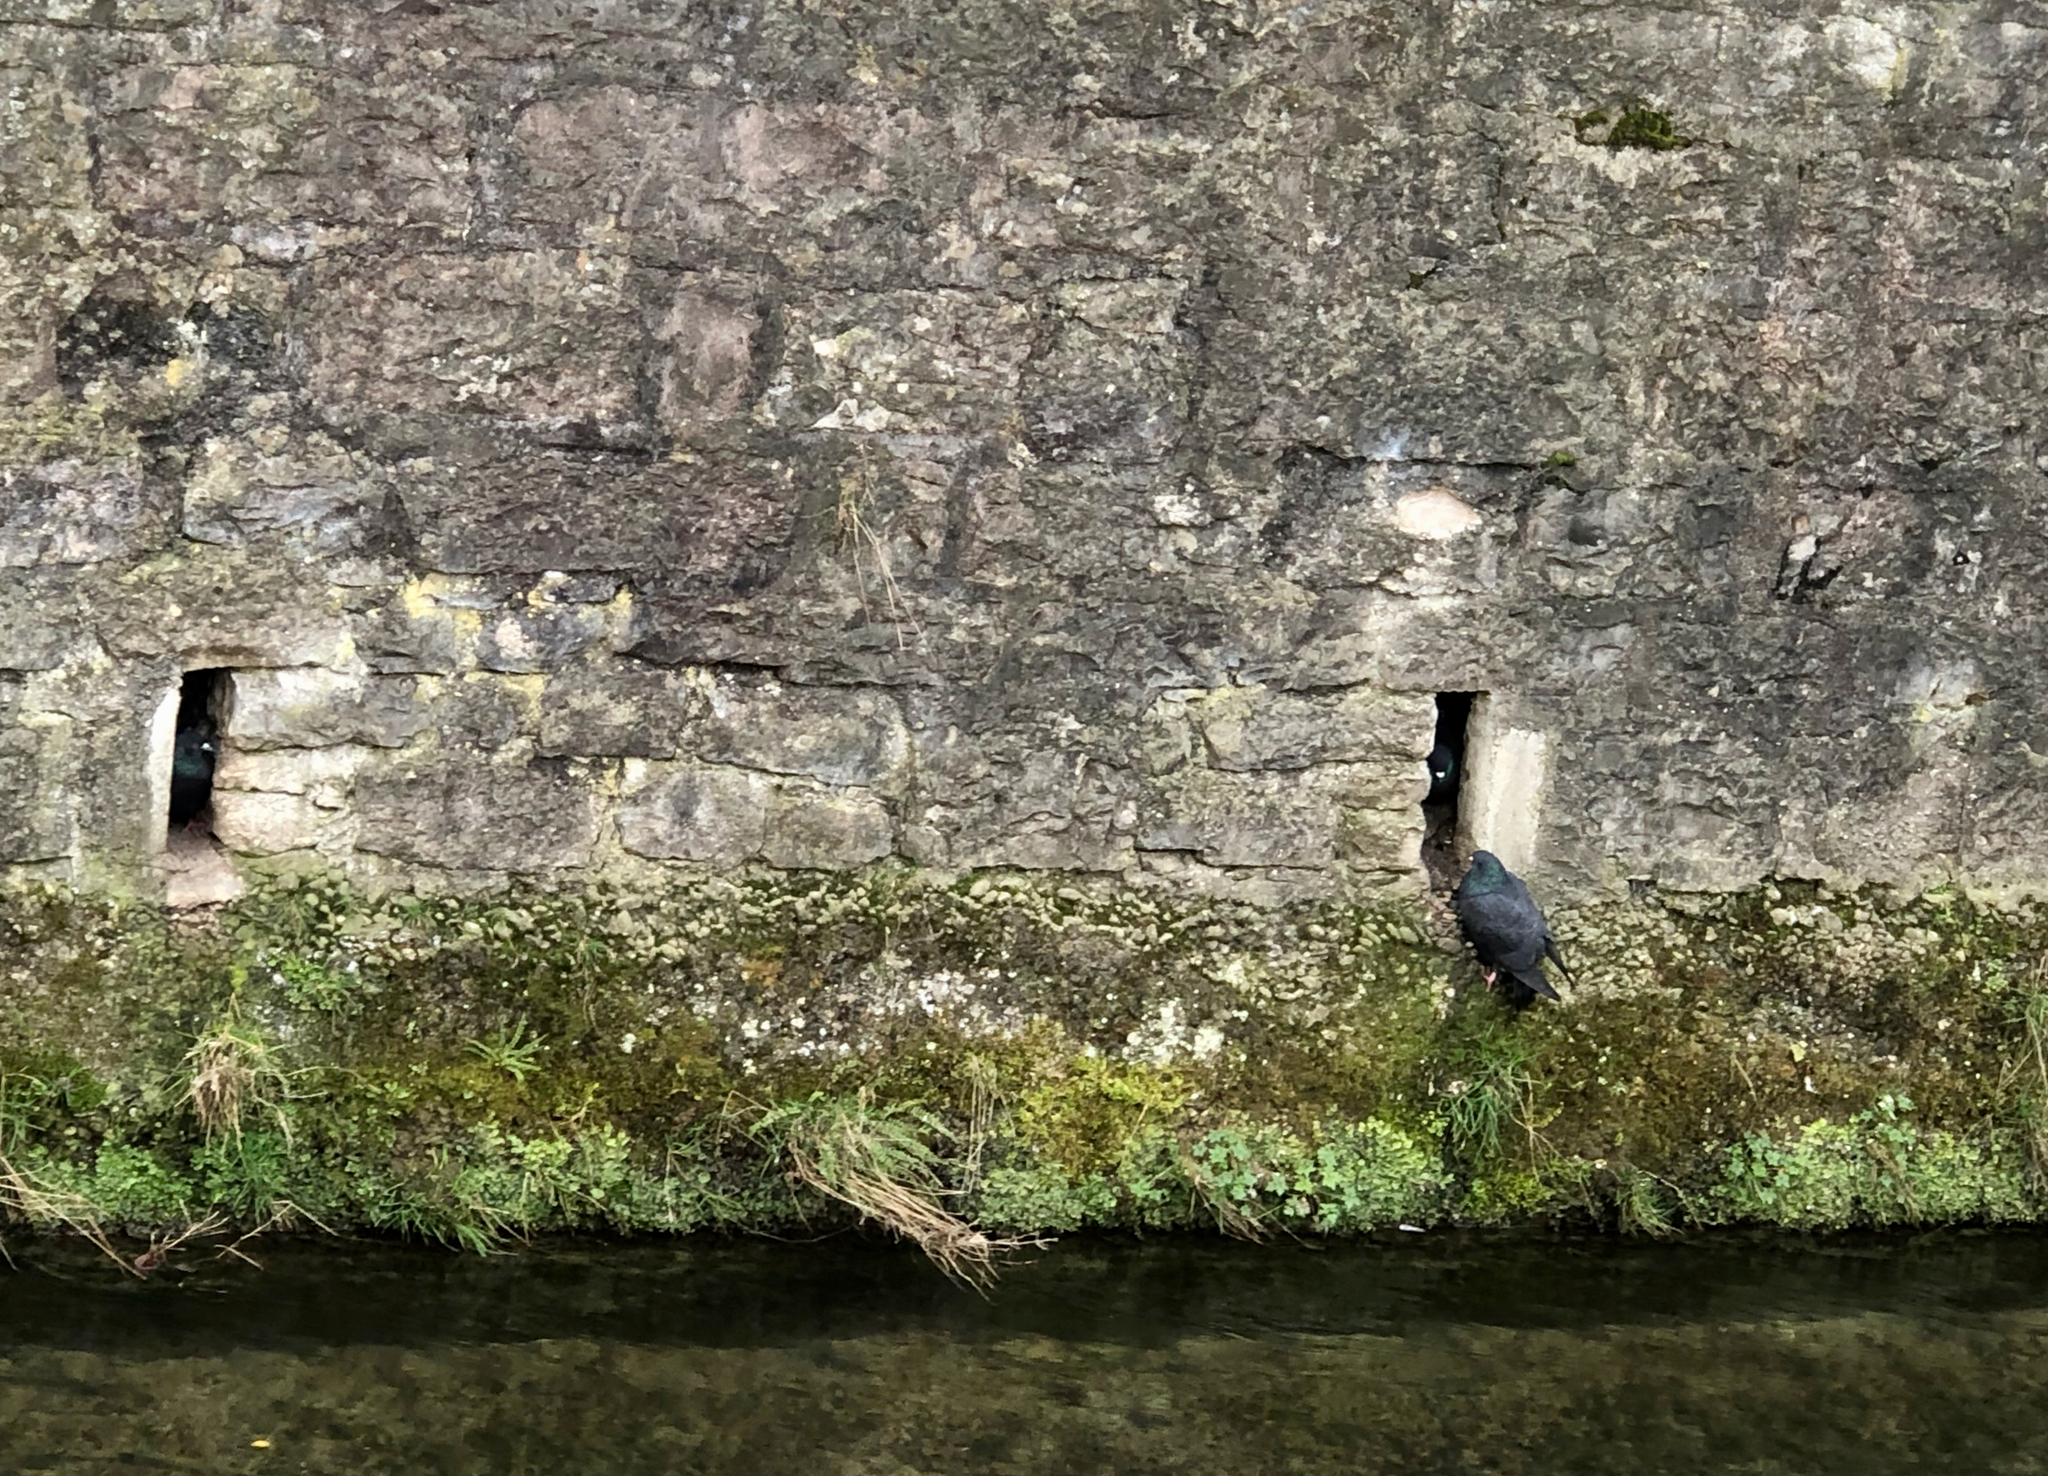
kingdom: Animalia
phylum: Chordata
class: Aves
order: Columbiformes
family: Columbidae
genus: Columba
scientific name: Columba livia
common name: Rock pigeon
